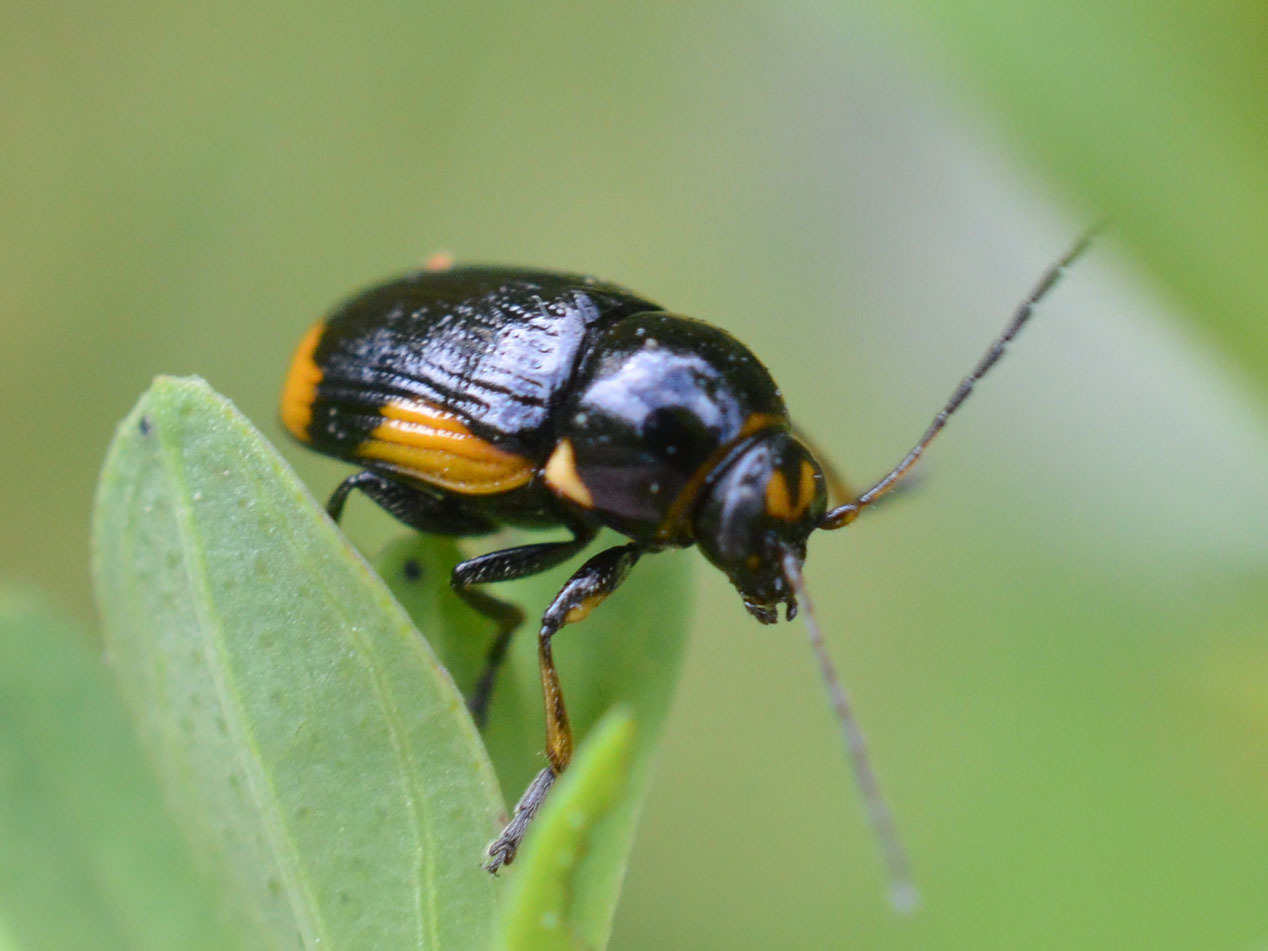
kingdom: Animalia
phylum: Arthropoda
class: Insecta
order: Coleoptera
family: Chrysomelidae
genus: Cryptocephalus
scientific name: Cryptocephalus moraei
